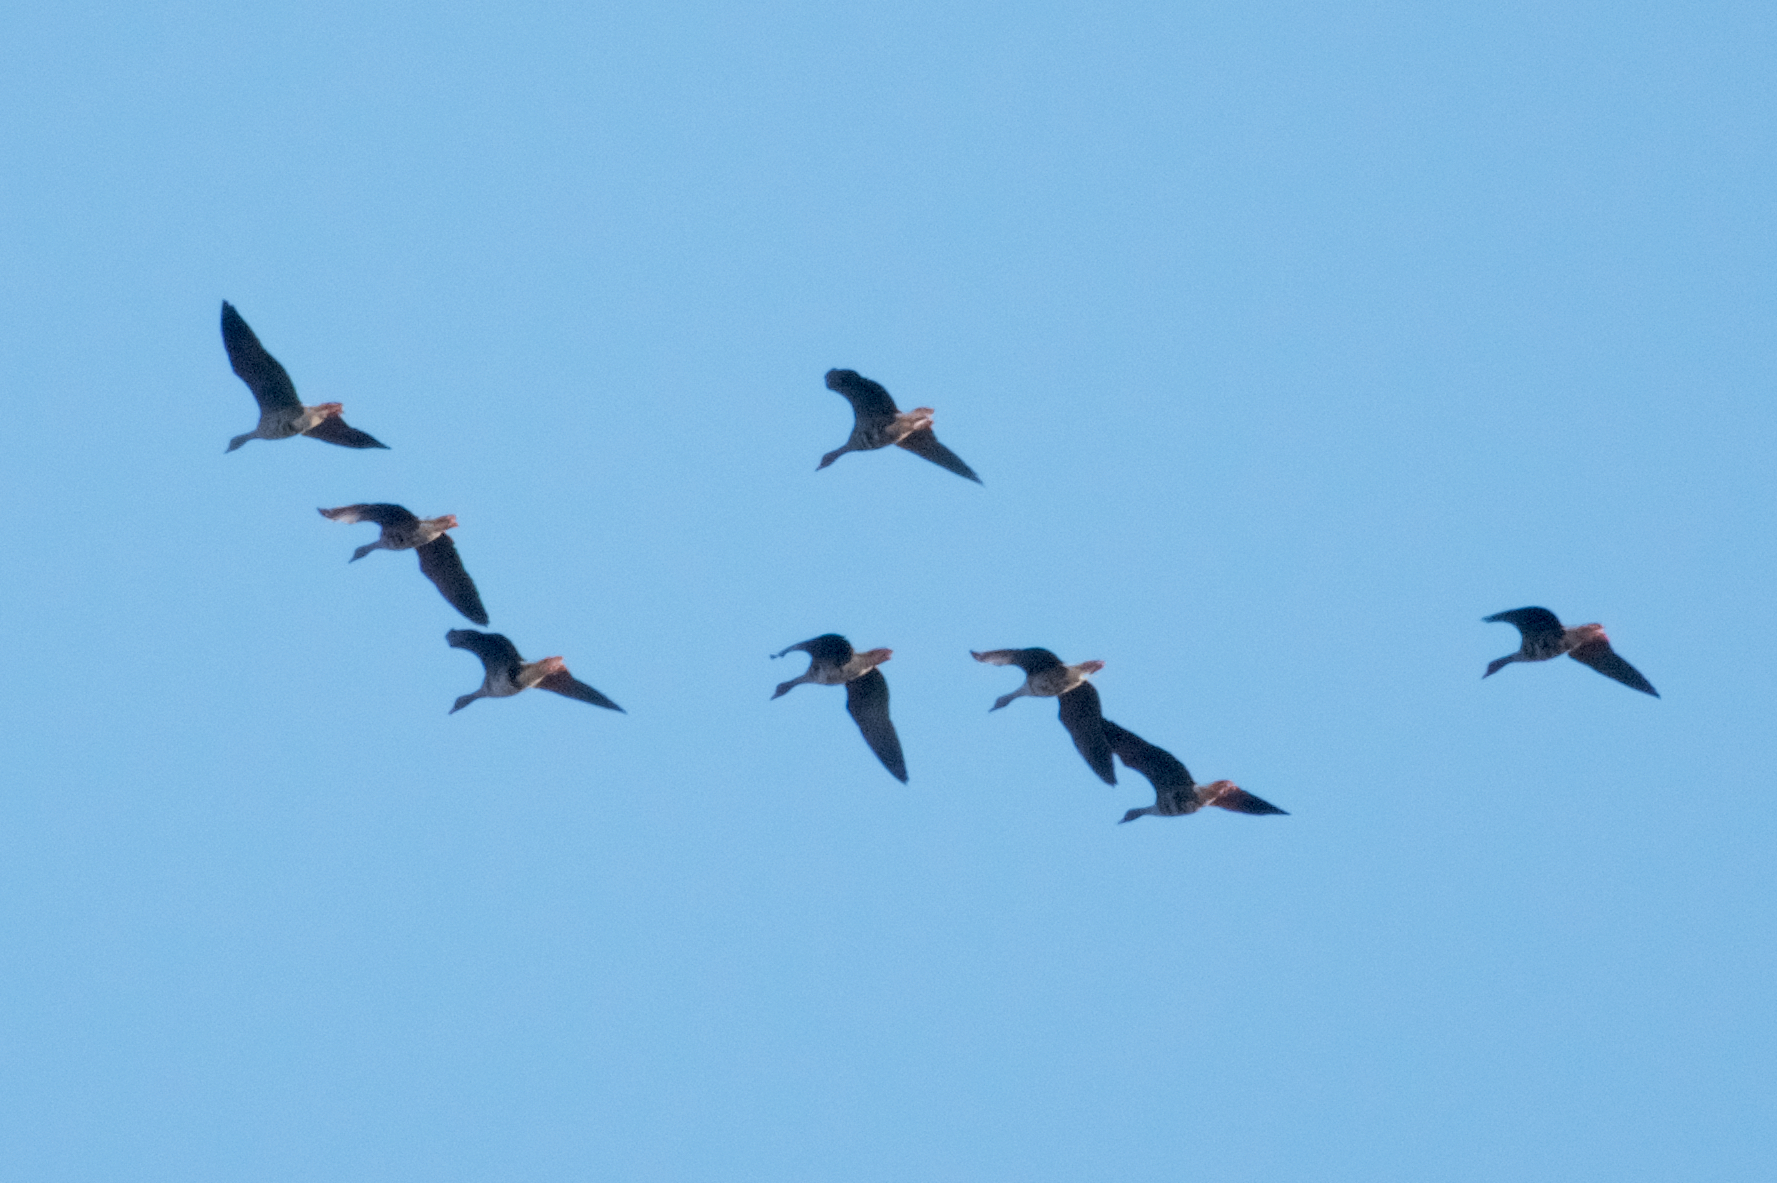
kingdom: Animalia
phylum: Chordata
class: Aves
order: Anseriformes
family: Anatidae
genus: Anser
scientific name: Anser albifrons
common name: Greater white-fronted goose
